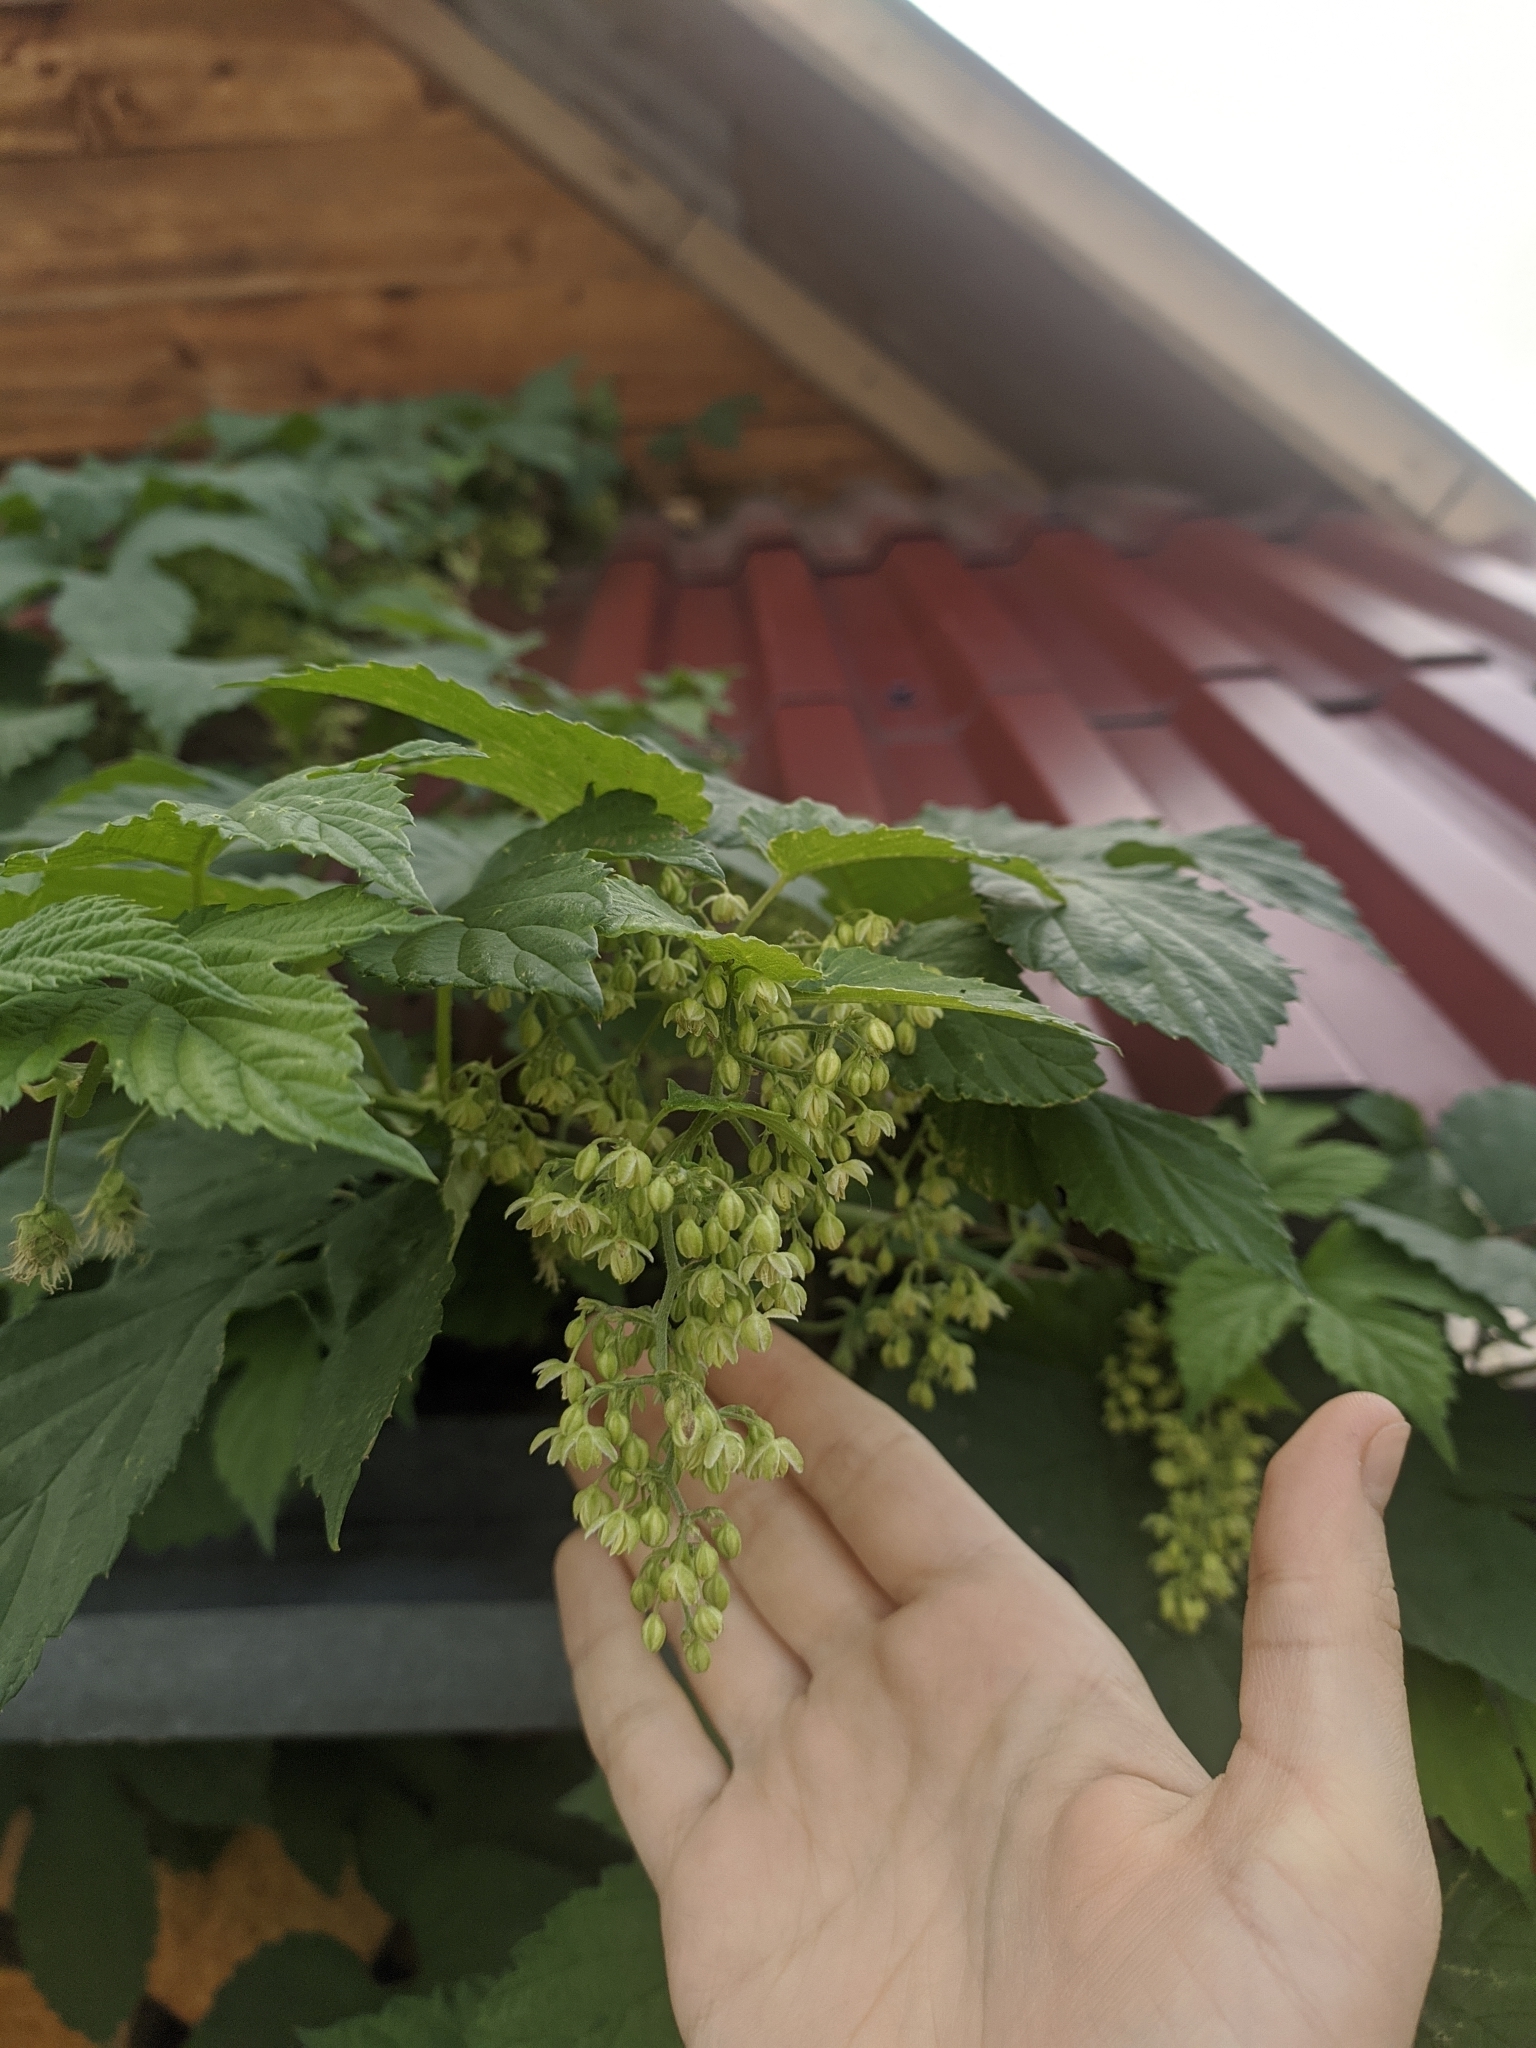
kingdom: Plantae
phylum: Tracheophyta
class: Magnoliopsida
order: Rosales
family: Cannabaceae
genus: Humulus
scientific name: Humulus lupulus
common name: Hop
